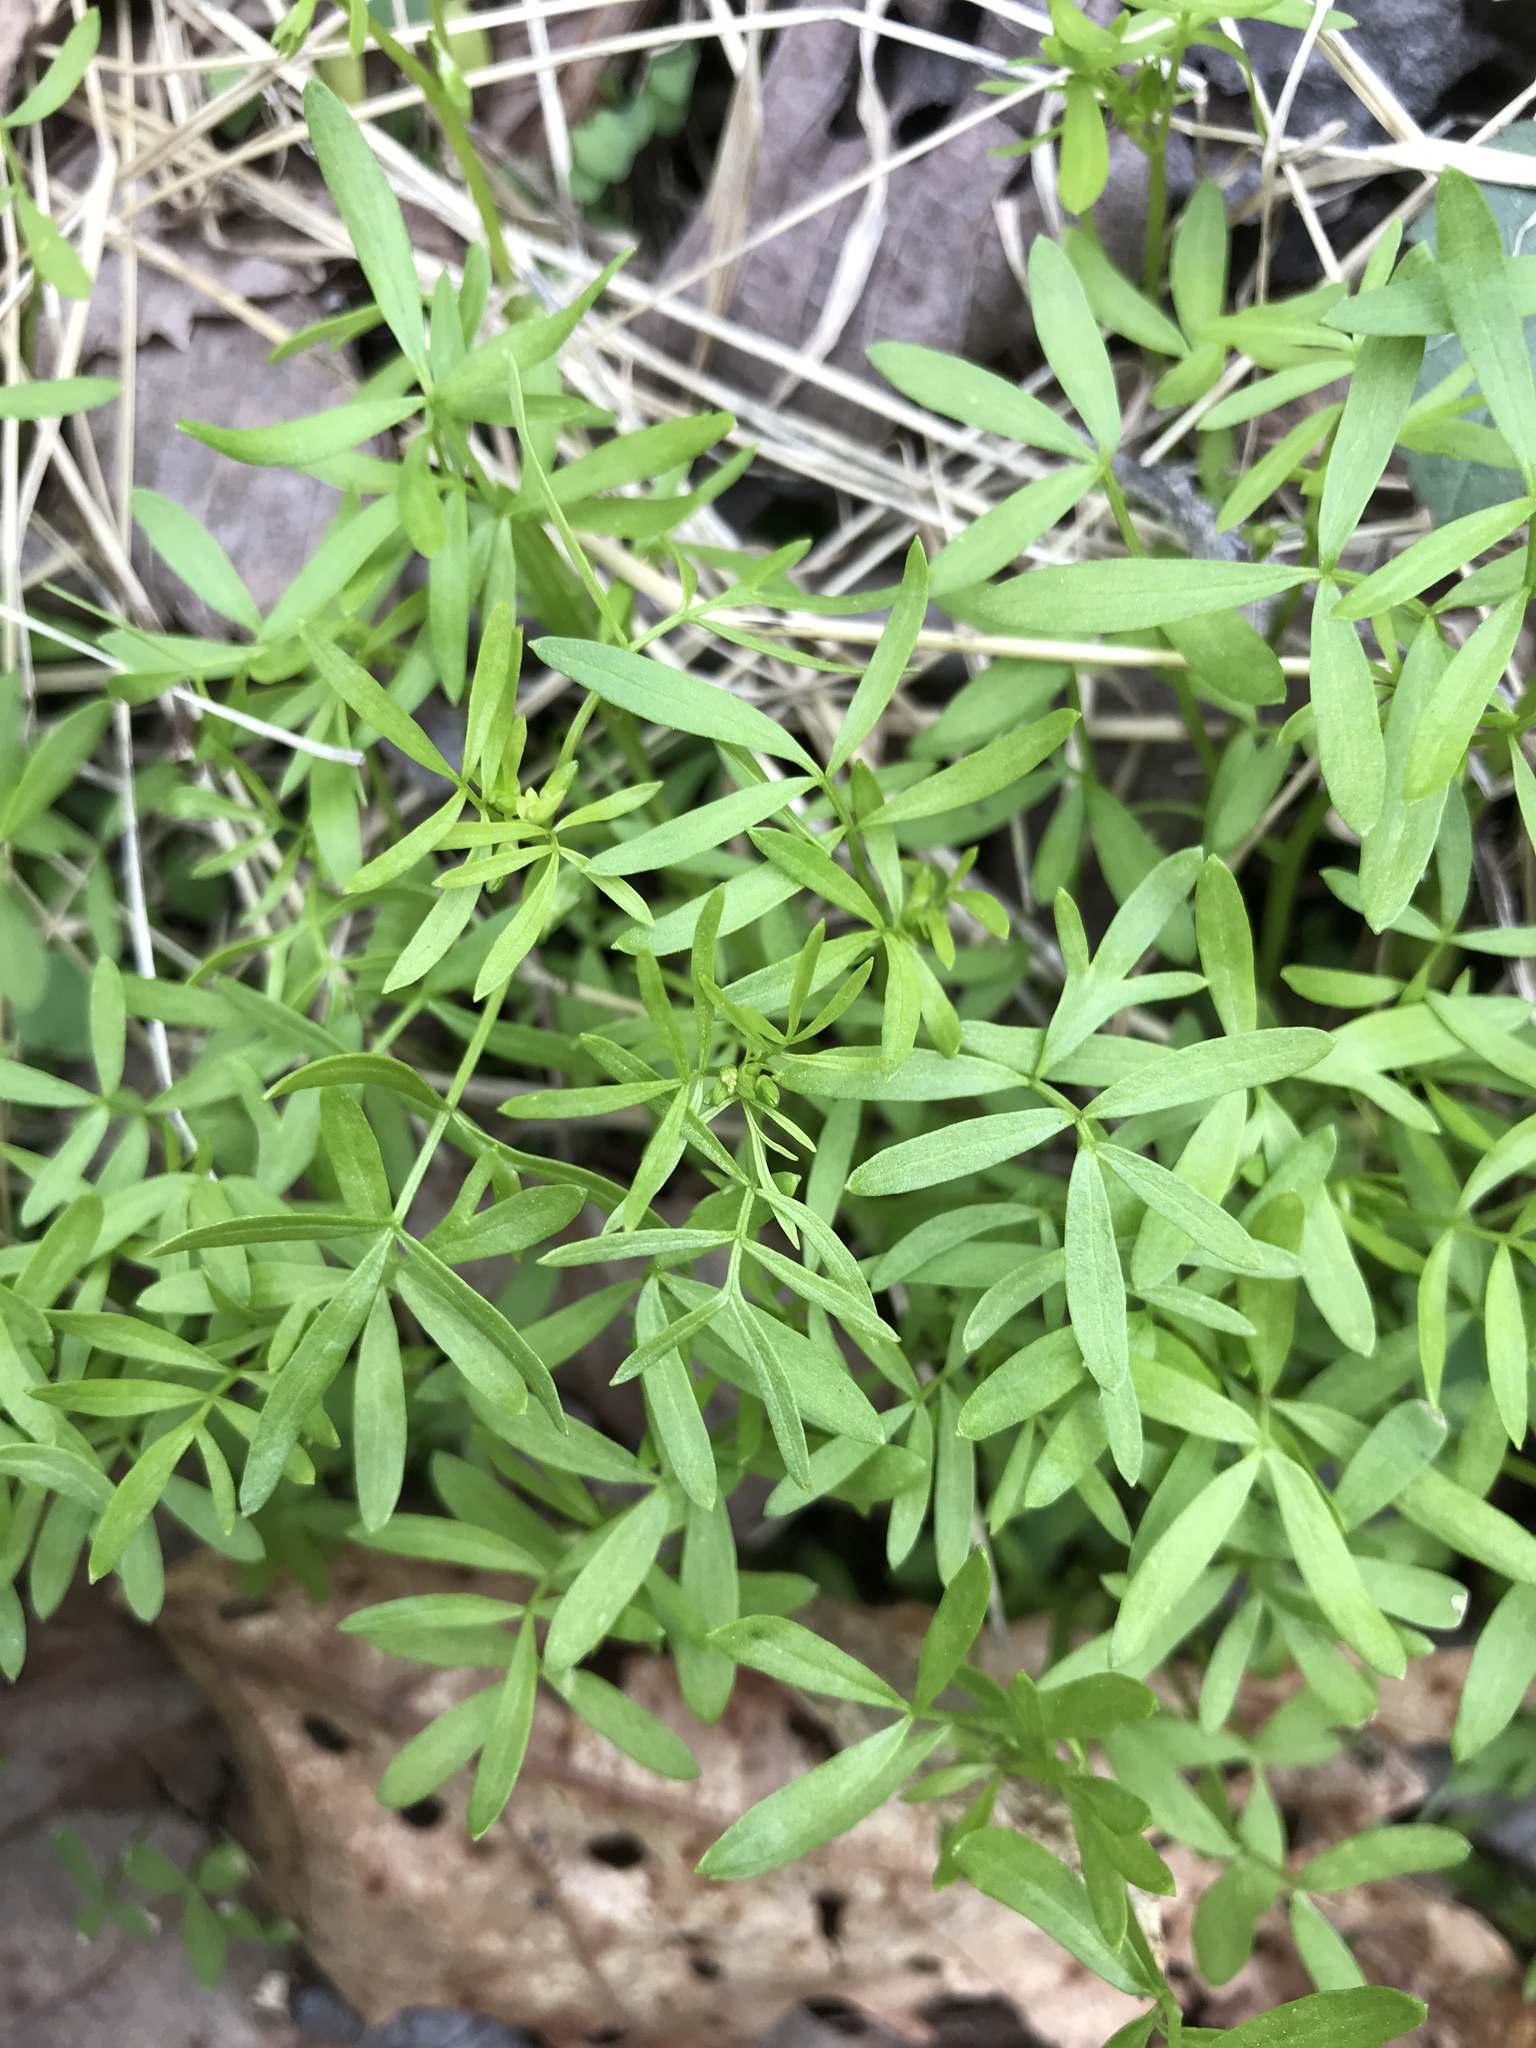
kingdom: Plantae
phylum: Tracheophyta
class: Magnoliopsida
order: Brassicales
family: Limnanthaceae
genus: Floerkea
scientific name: Floerkea proserpinacoides
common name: False mermaid
